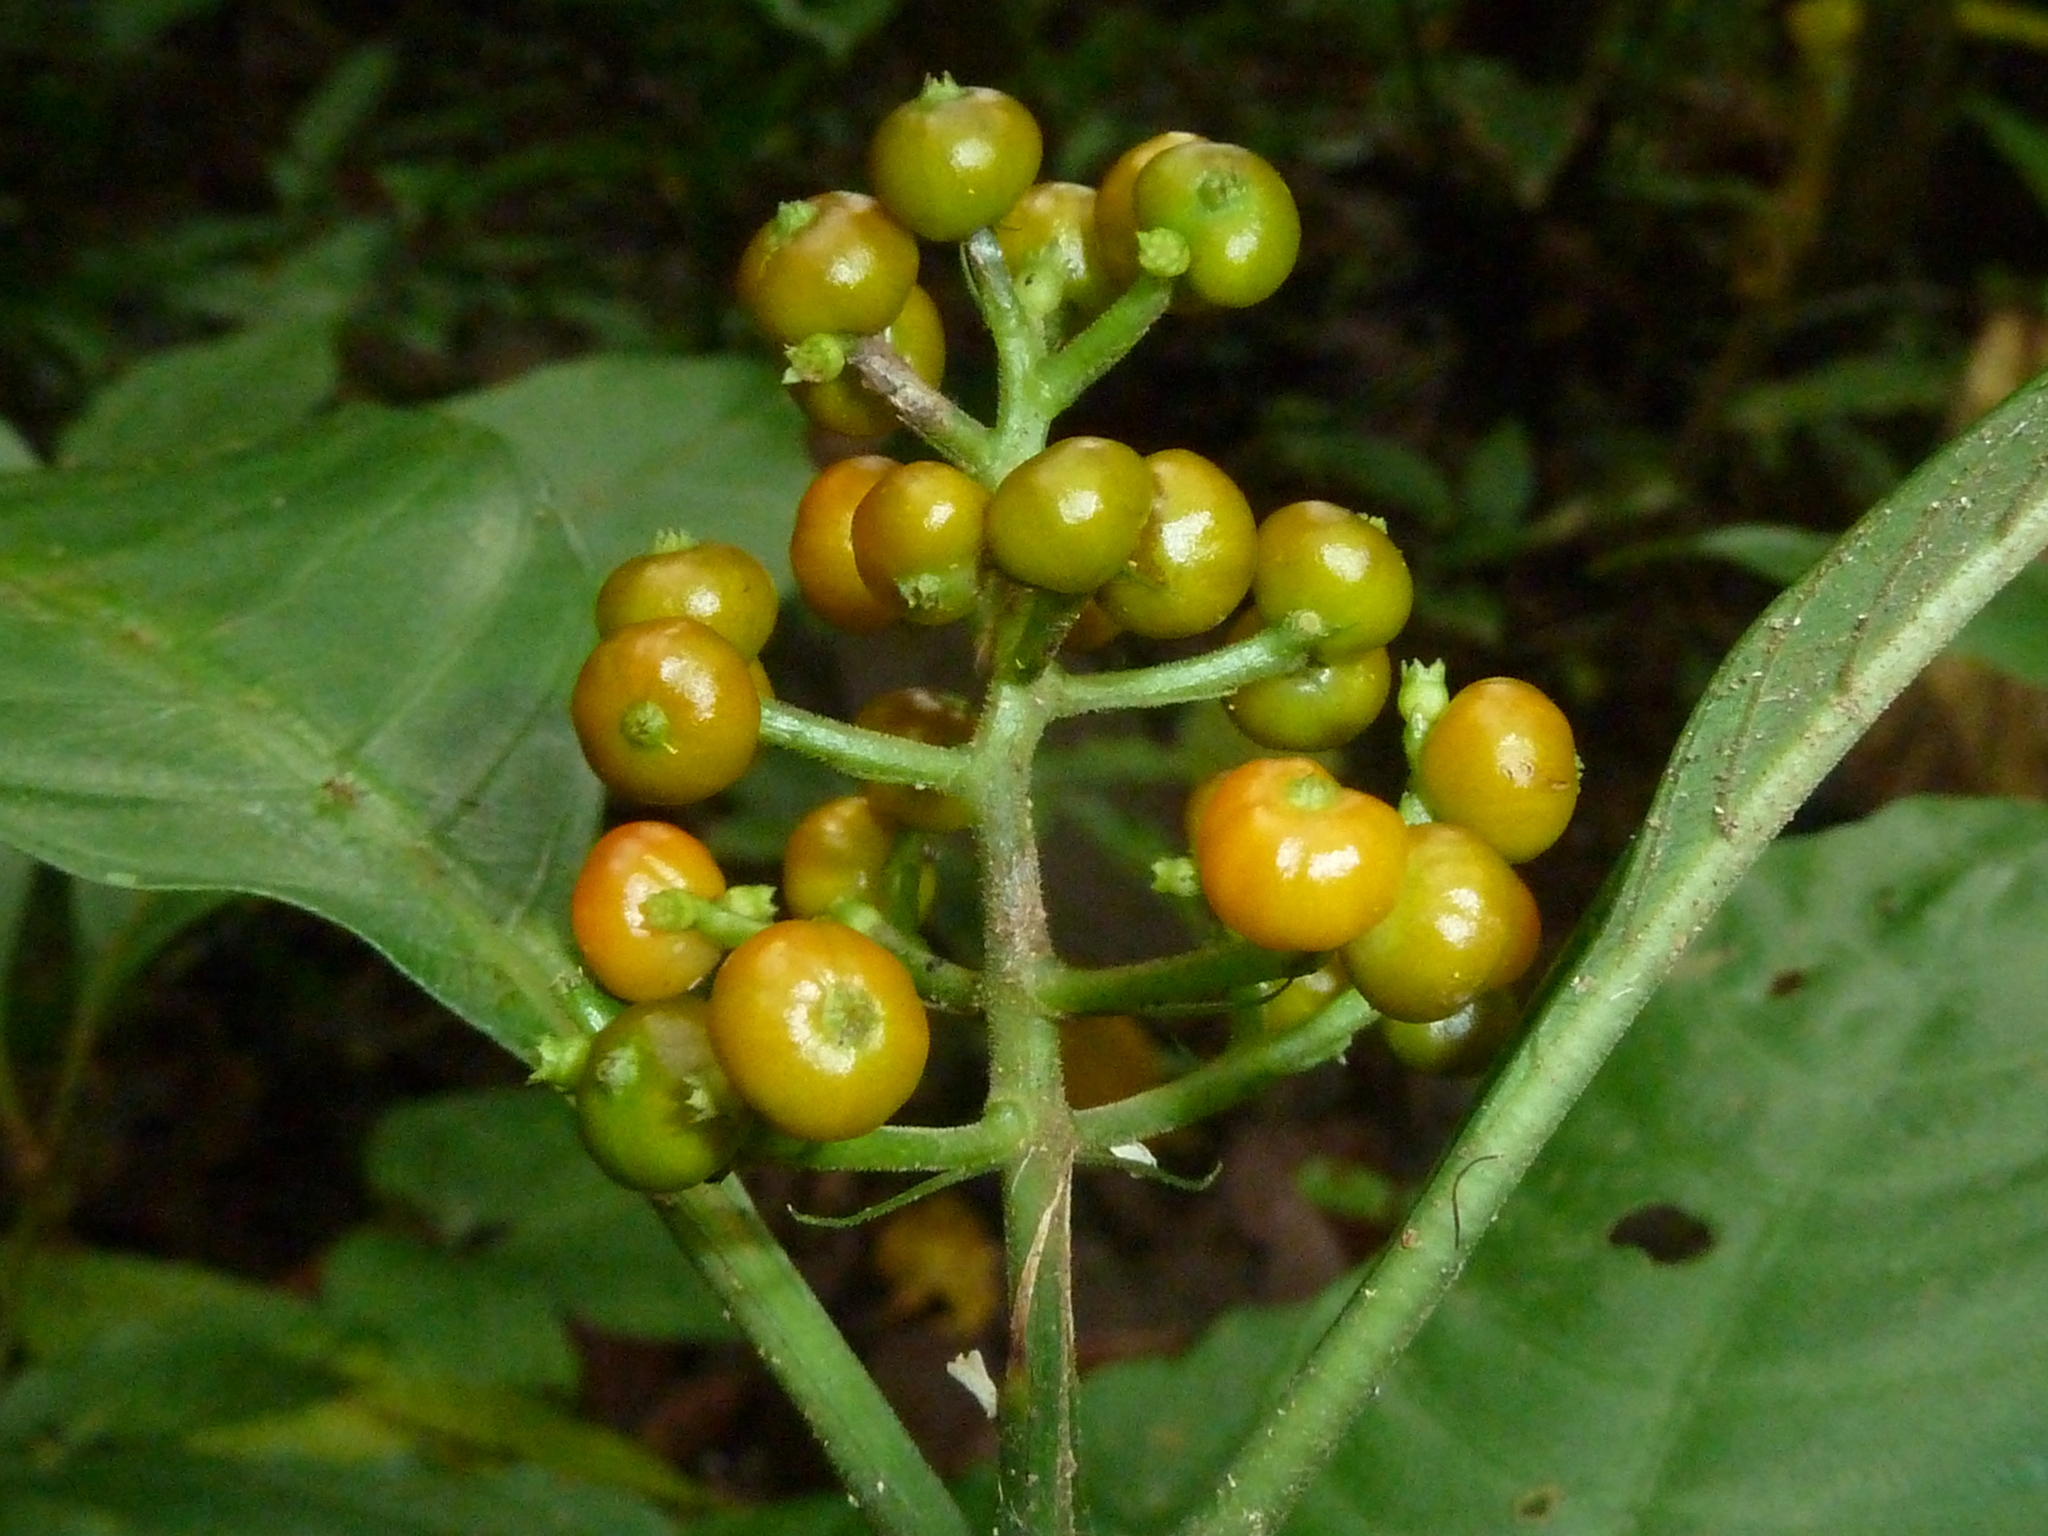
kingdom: Plantae
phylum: Tracheophyta
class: Magnoliopsida
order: Gentianales
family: Rubiaceae
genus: Palicourea
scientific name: Palicourea racemosa
